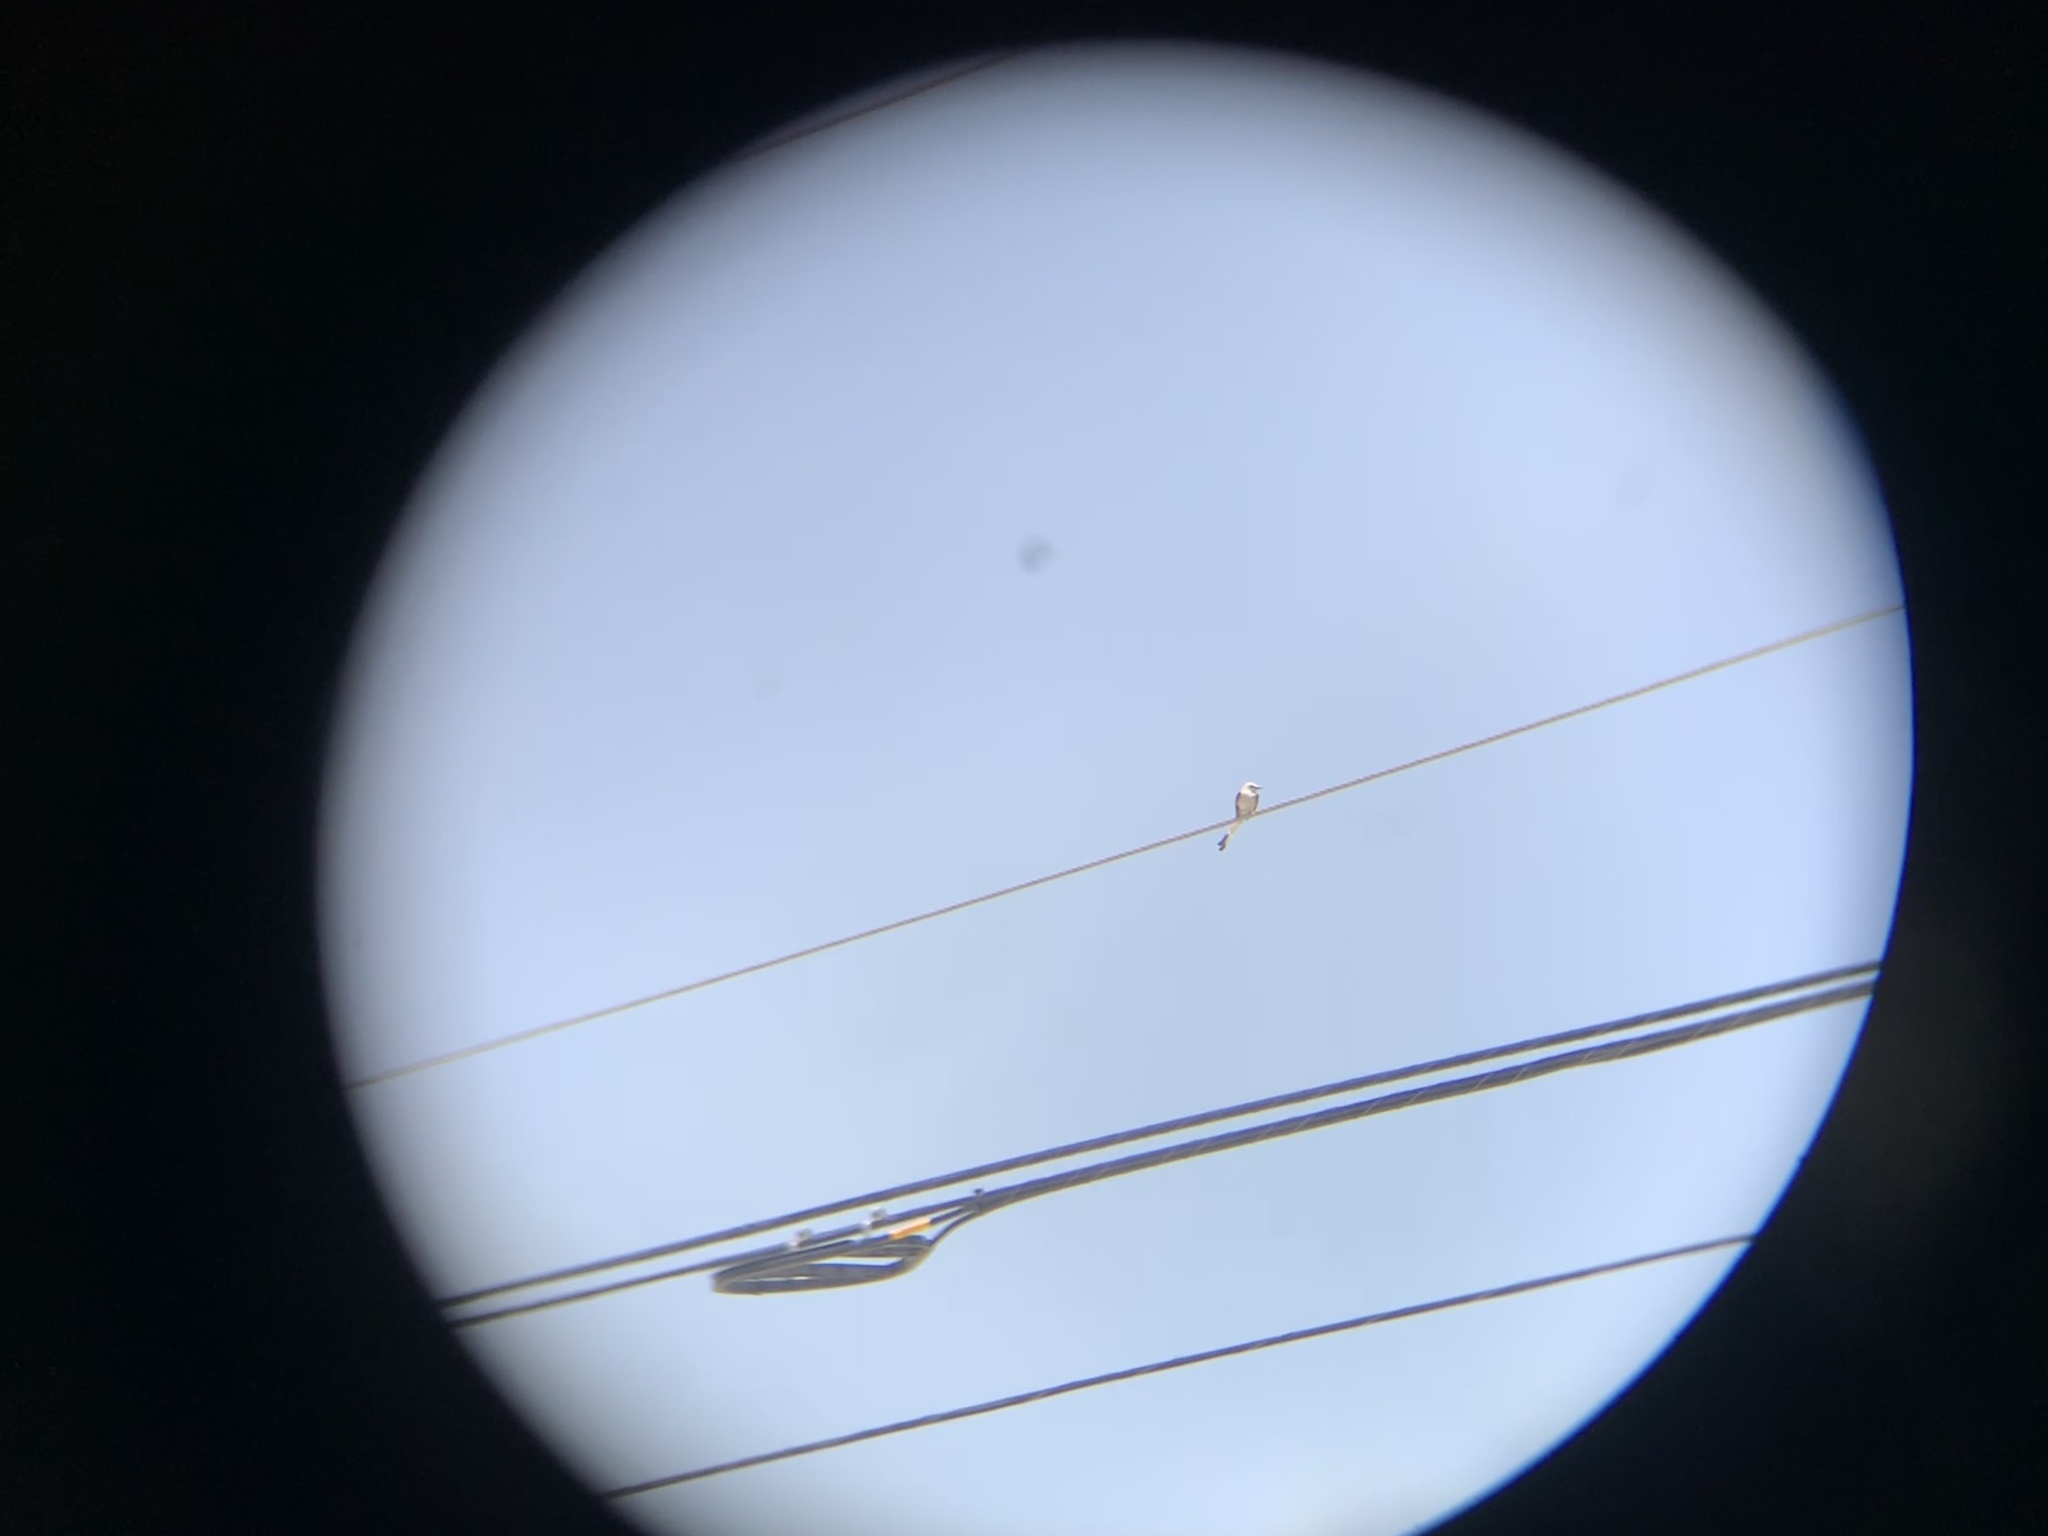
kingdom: Animalia
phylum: Chordata
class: Aves
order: Passeriformes
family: Tyrannidae
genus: Tyrannus
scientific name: Tyrannus forficatus
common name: Scissor-tailed flycatcher
